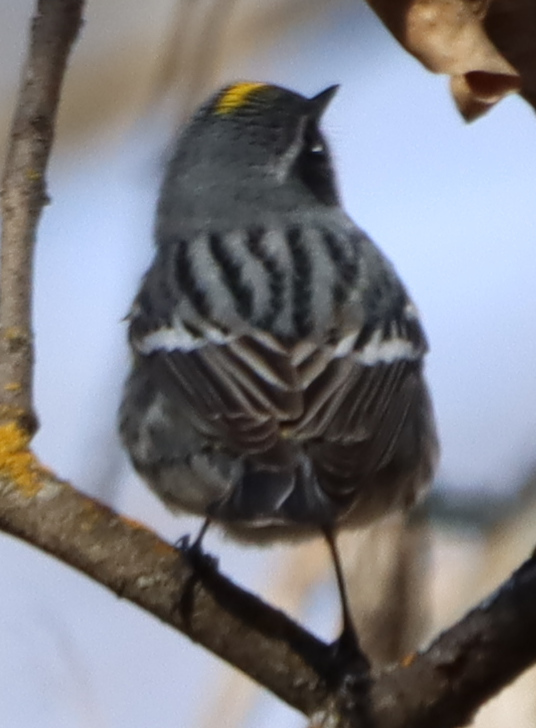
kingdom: Animalia
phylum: Chordata
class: Aves
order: Passeriformes
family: Parulidae
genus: Setophaga
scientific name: Setophaga coronata
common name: Myrtle warbler
